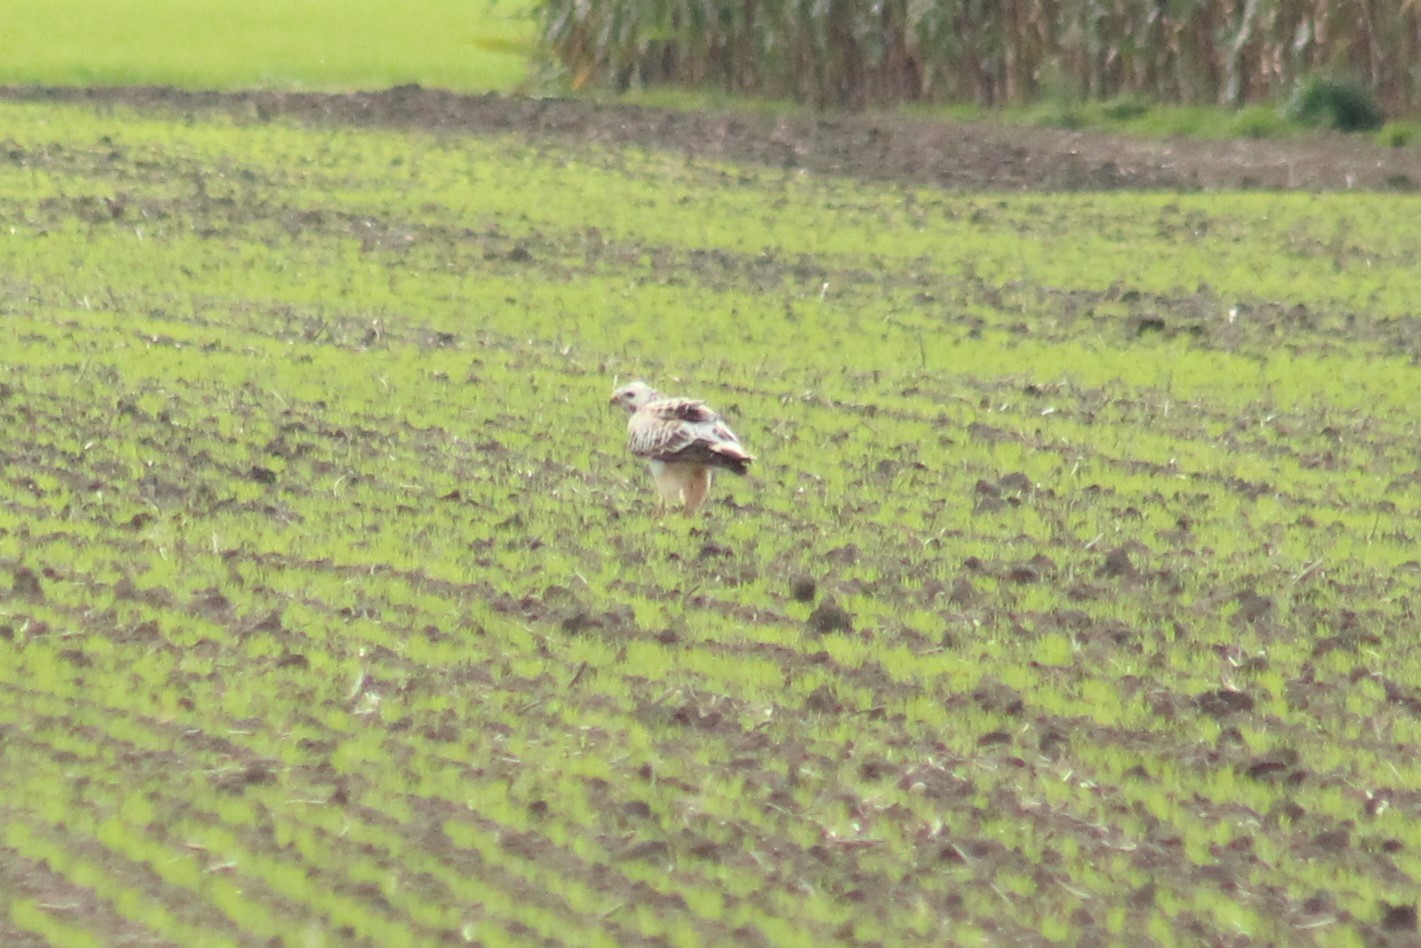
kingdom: Animalia
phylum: Chordata
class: Aves
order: Accipitriformes
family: Accipitridae
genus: Buteo
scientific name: Buteo buteo
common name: Common buzzard
